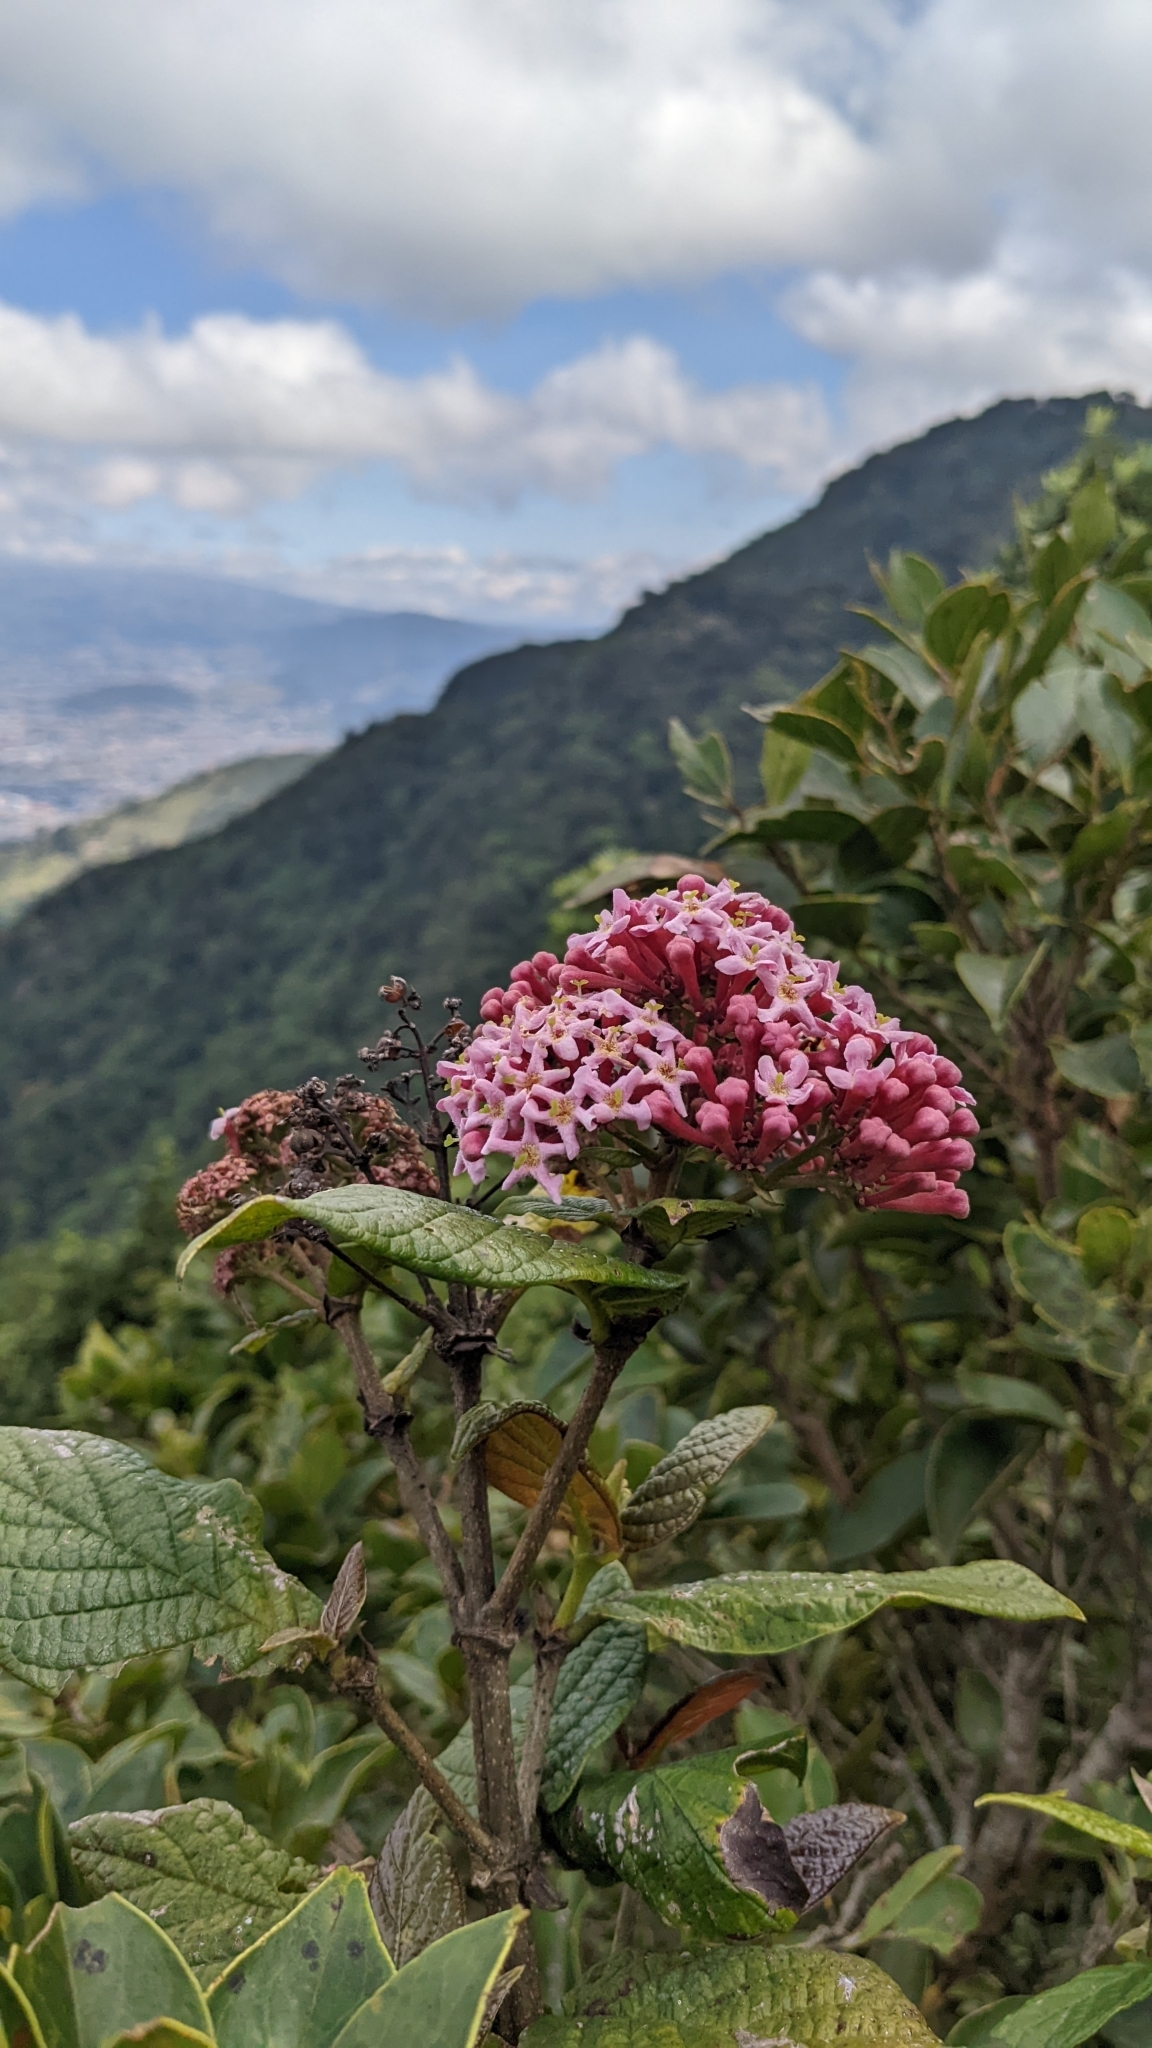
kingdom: Plantae
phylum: Tracheophyta
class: Magnoliopsida
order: Gentianales
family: Rubiaceae
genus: Rogiera
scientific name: Rogiera amoena
